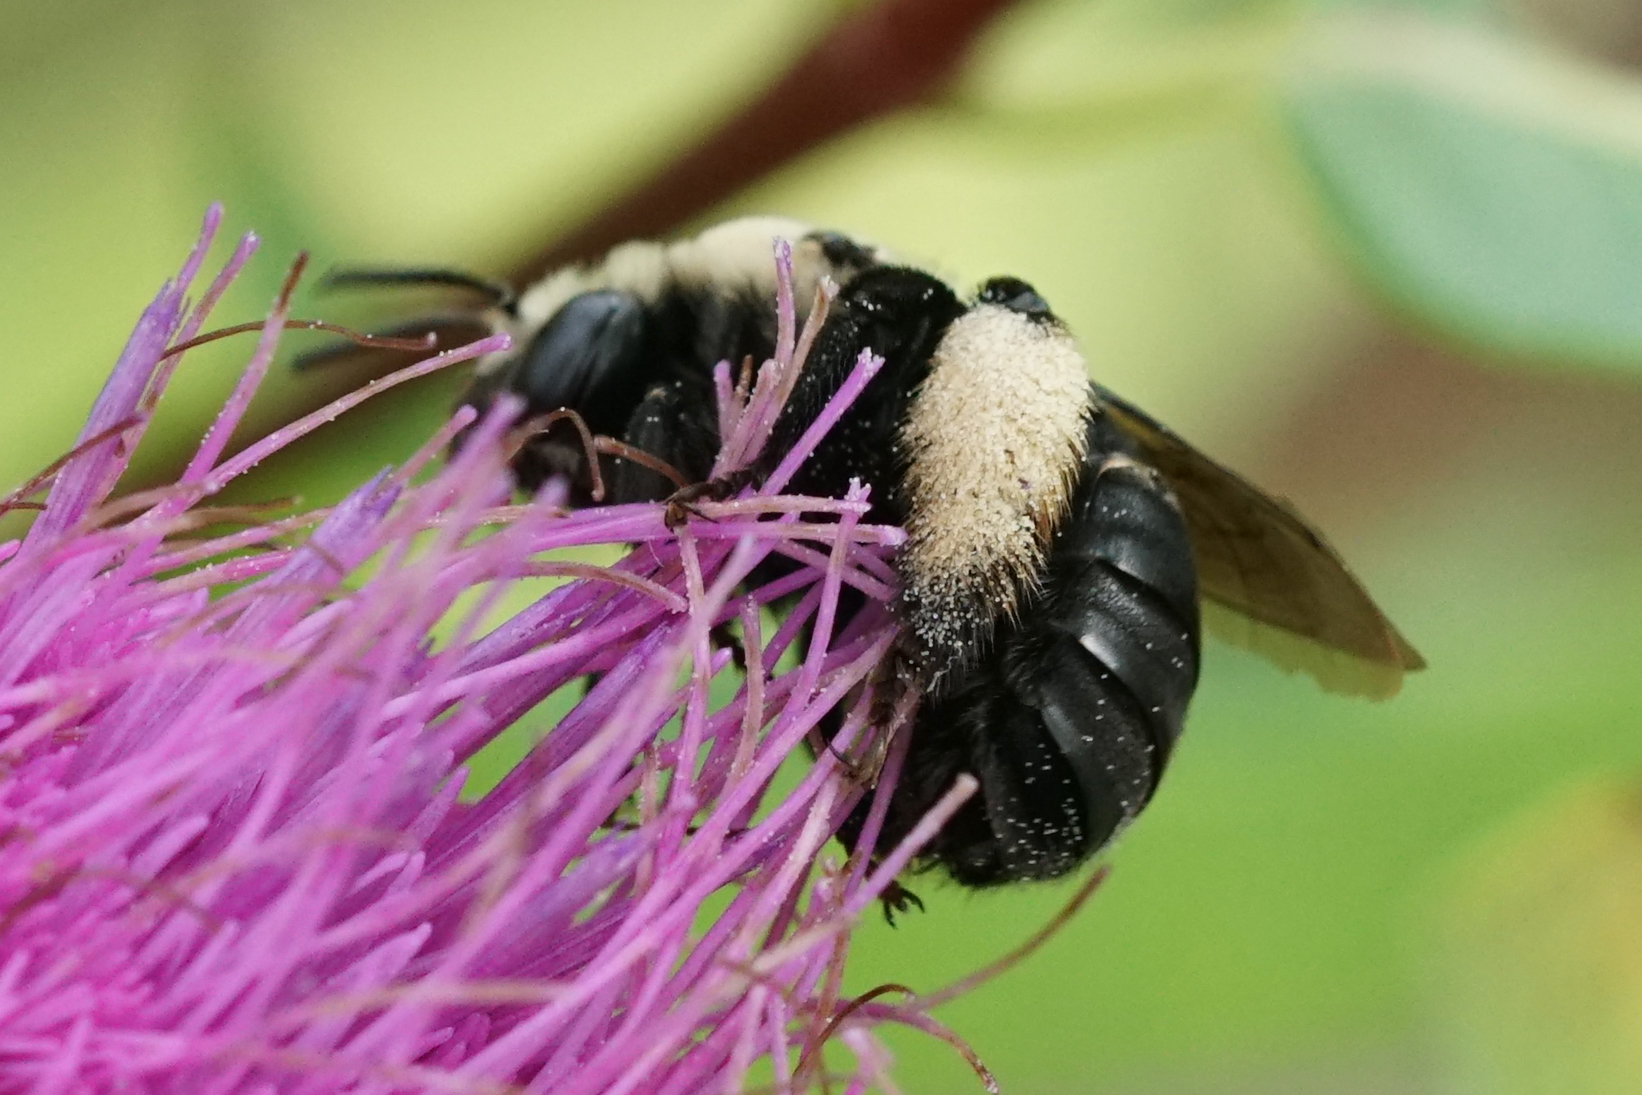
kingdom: Animalia
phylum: Arthropoda
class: Insecta
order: Hymenoptera
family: Apidae
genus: Melissodes
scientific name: Melissodes desponsus
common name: Thistle long-horned bee
